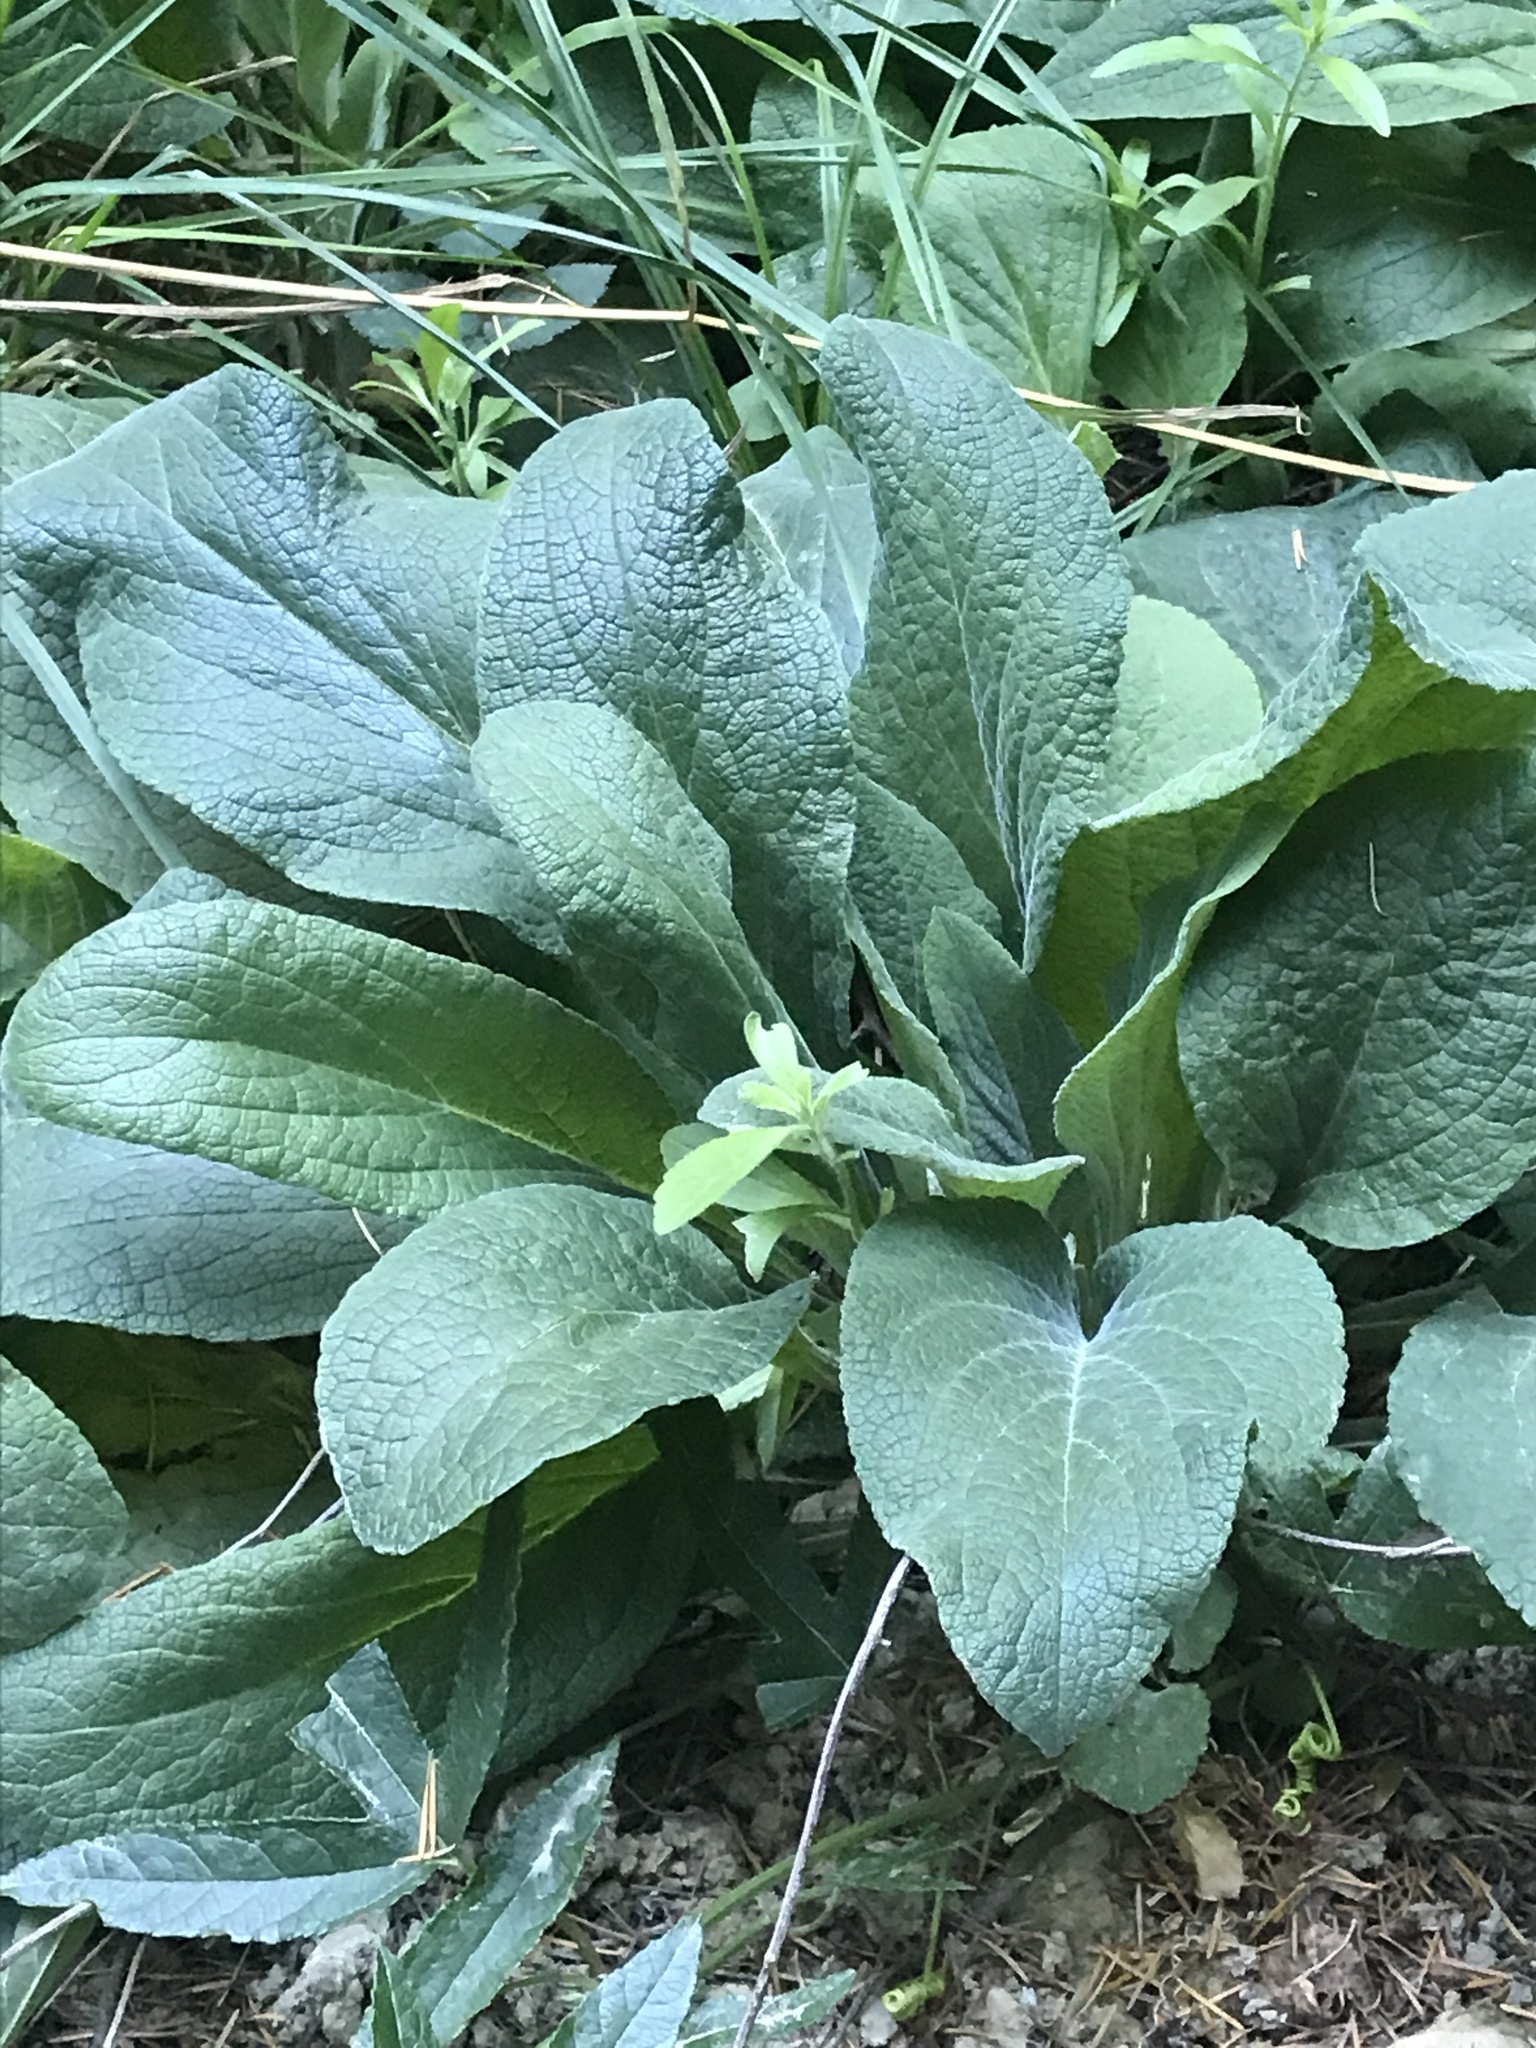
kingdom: Plantae
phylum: Tracheophyta
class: Magnoliopsida
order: Lamiales
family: Plantaginaceae
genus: Digitalis
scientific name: Digitalis purpurea
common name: Foxglove
